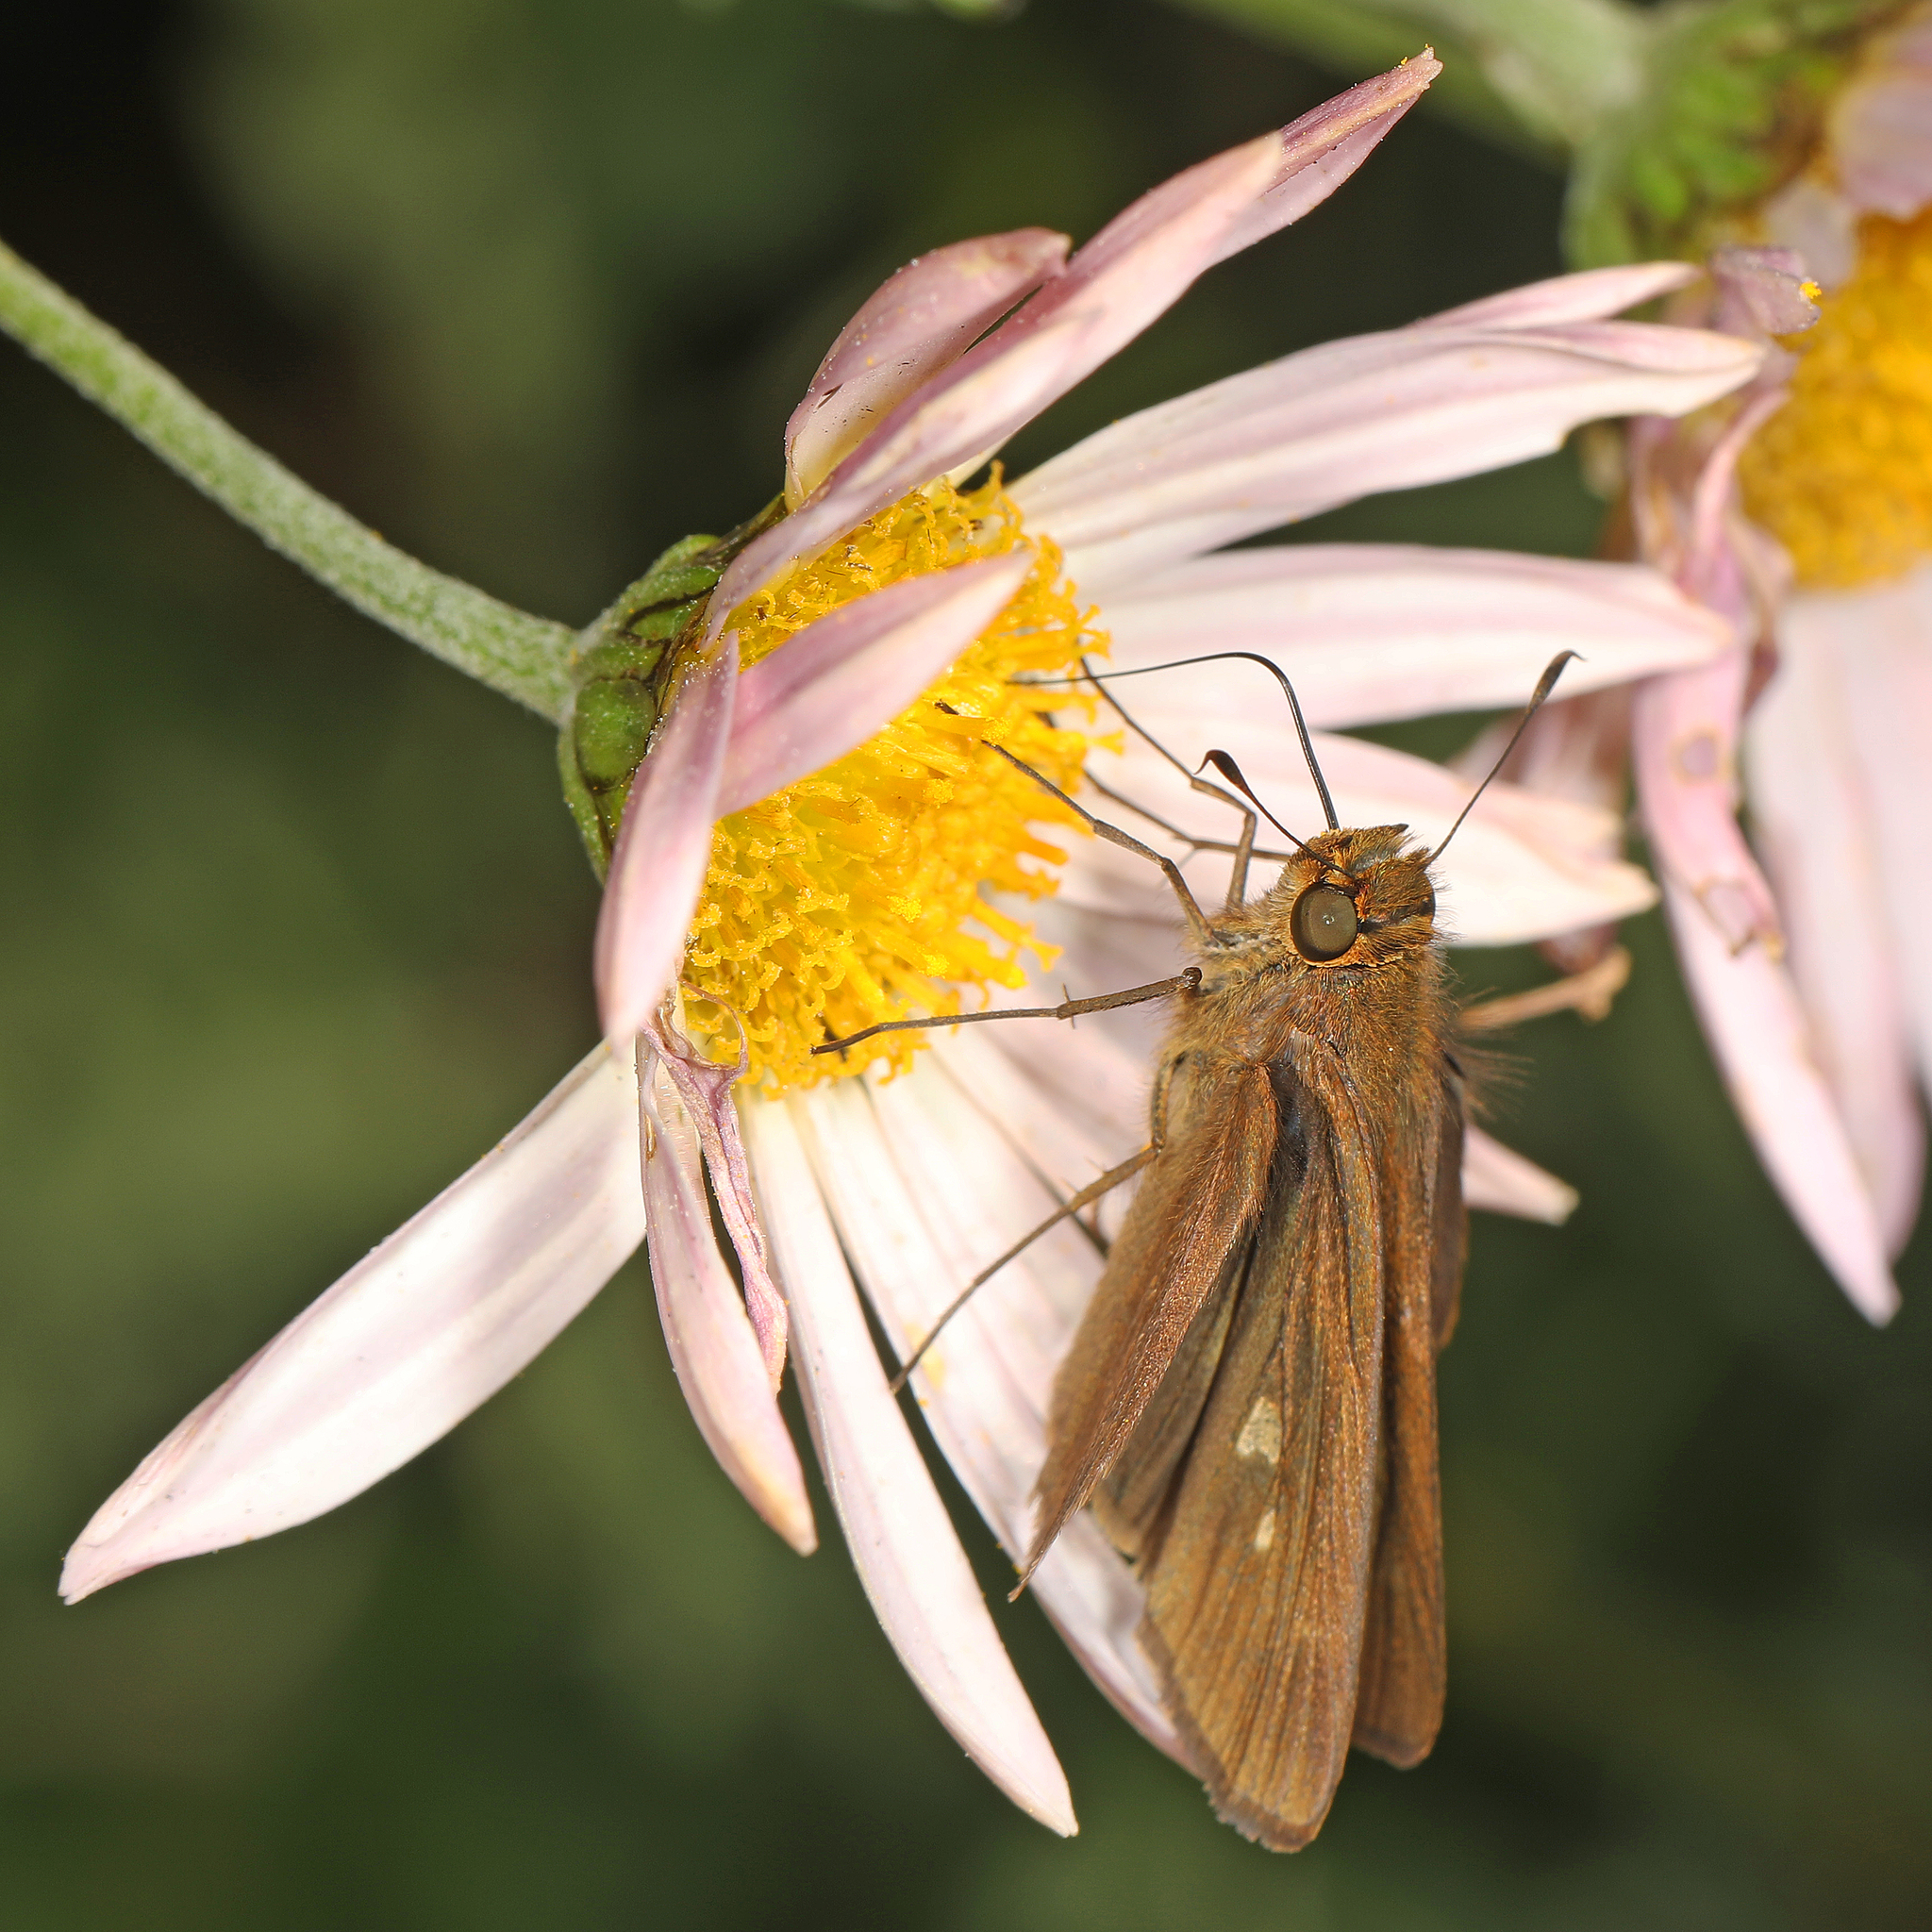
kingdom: Animalia
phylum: Arthropoda
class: Insecta
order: Lepidoptera
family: Hesperiidae
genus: Panoquina
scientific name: Panoquina ocola
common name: Ocola skipper
